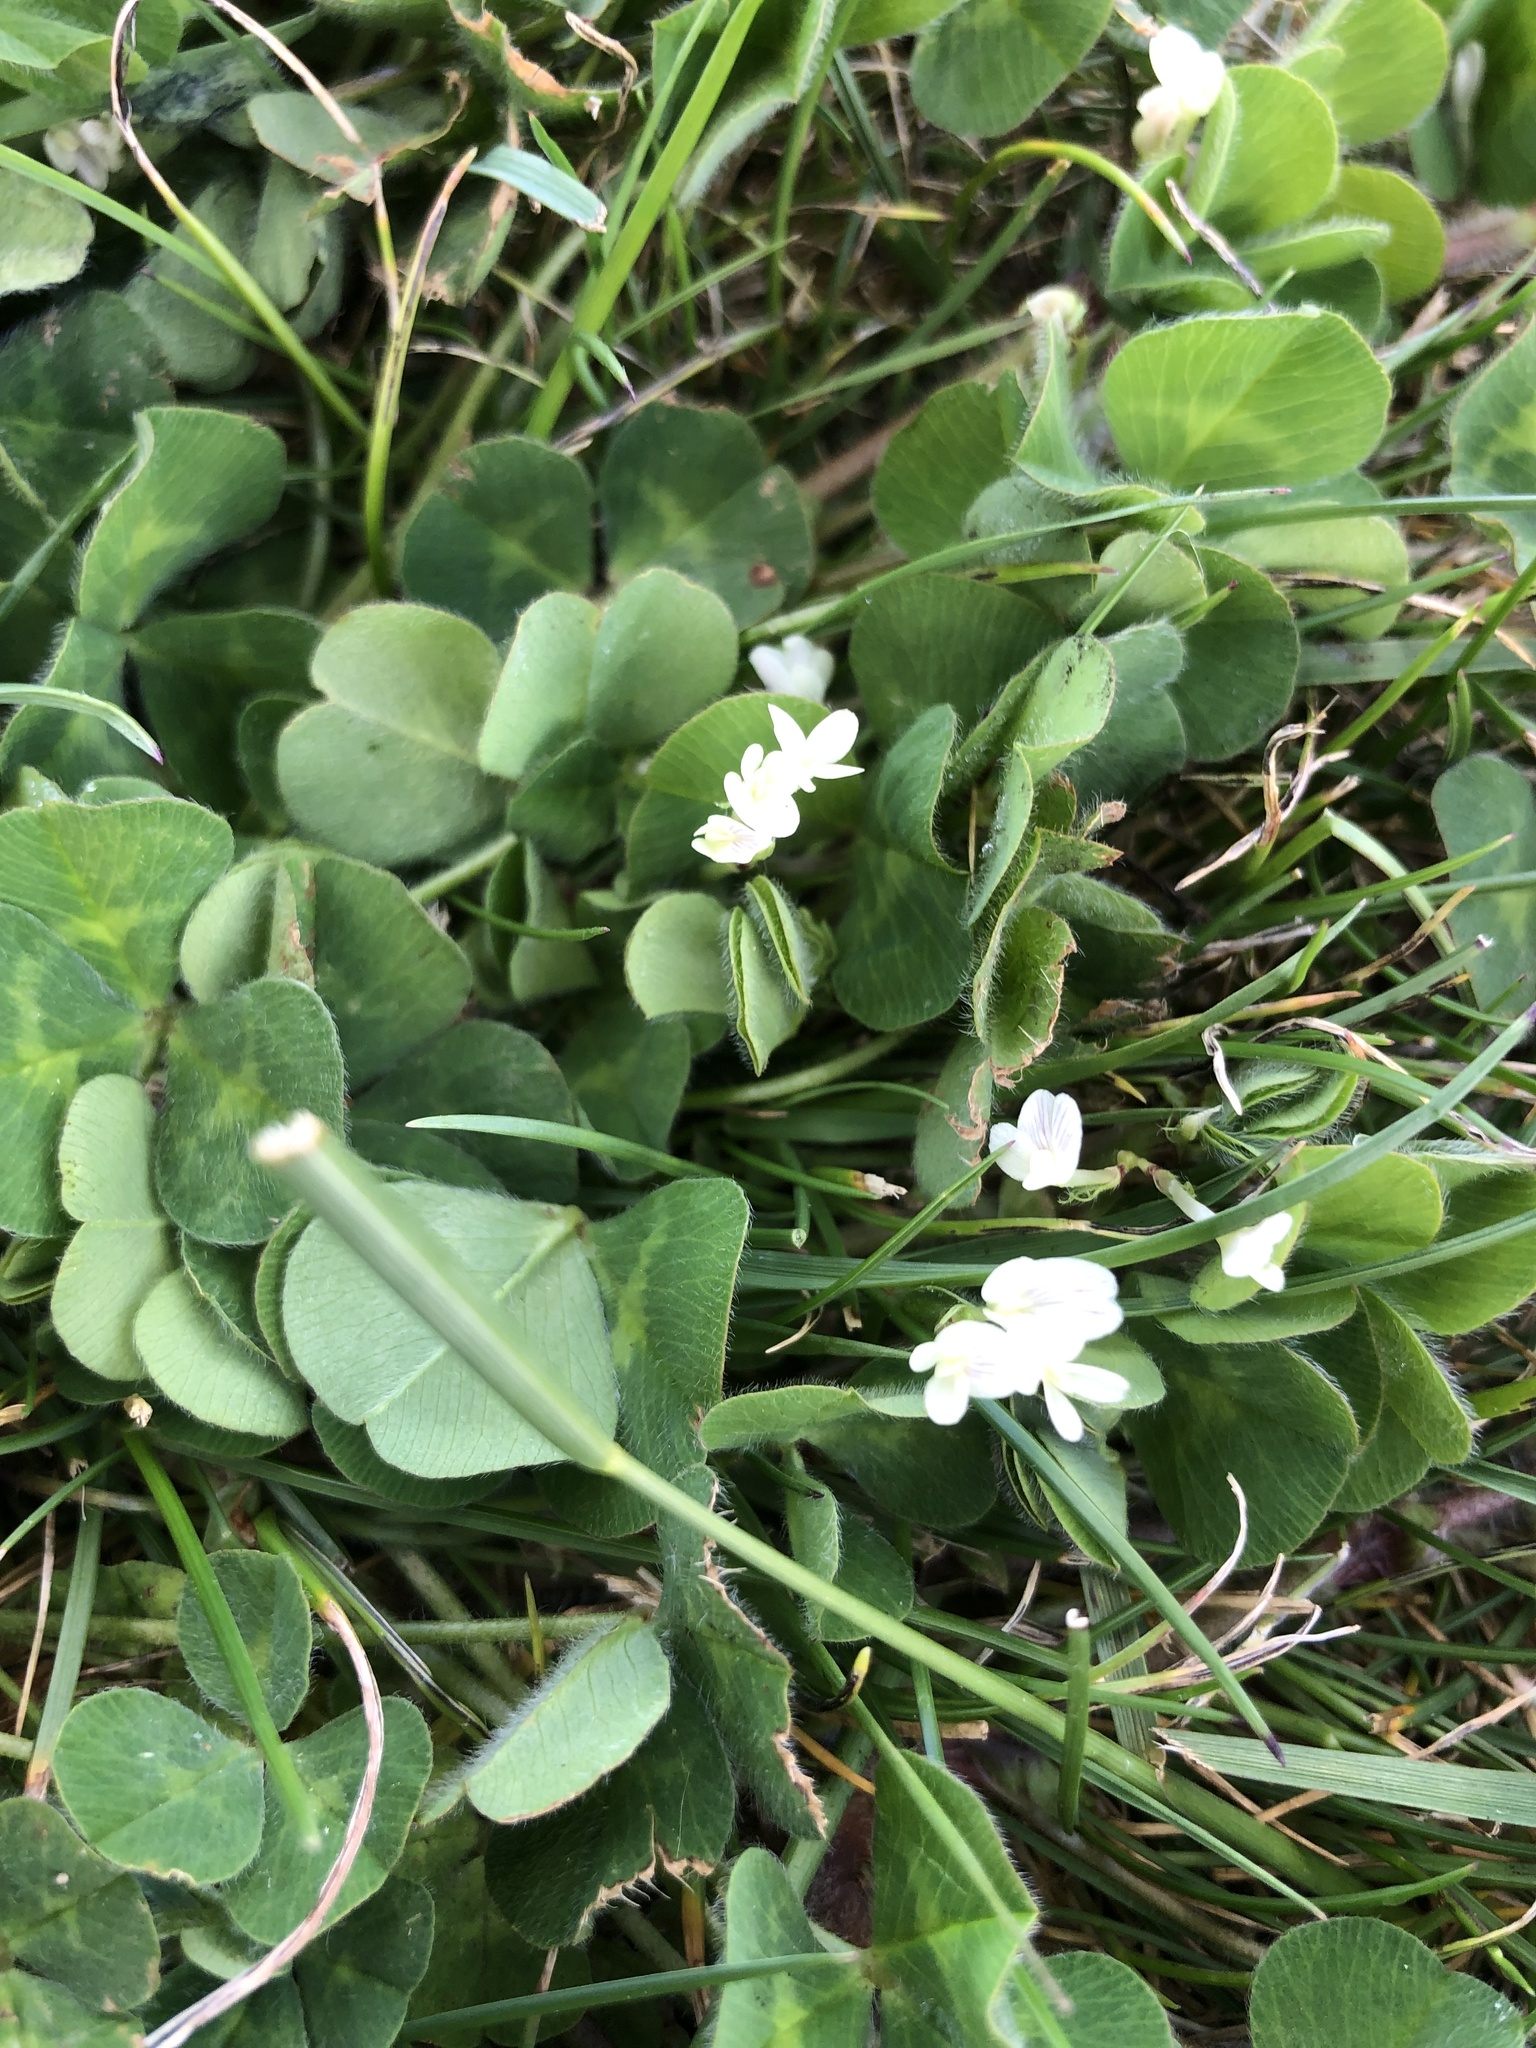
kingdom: Plantae
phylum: Tracheophyta
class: Magnoliopsida
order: Fabales
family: Fabaceae
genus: Trifolium
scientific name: Trifolium subterraneum
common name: Subterranean clover
